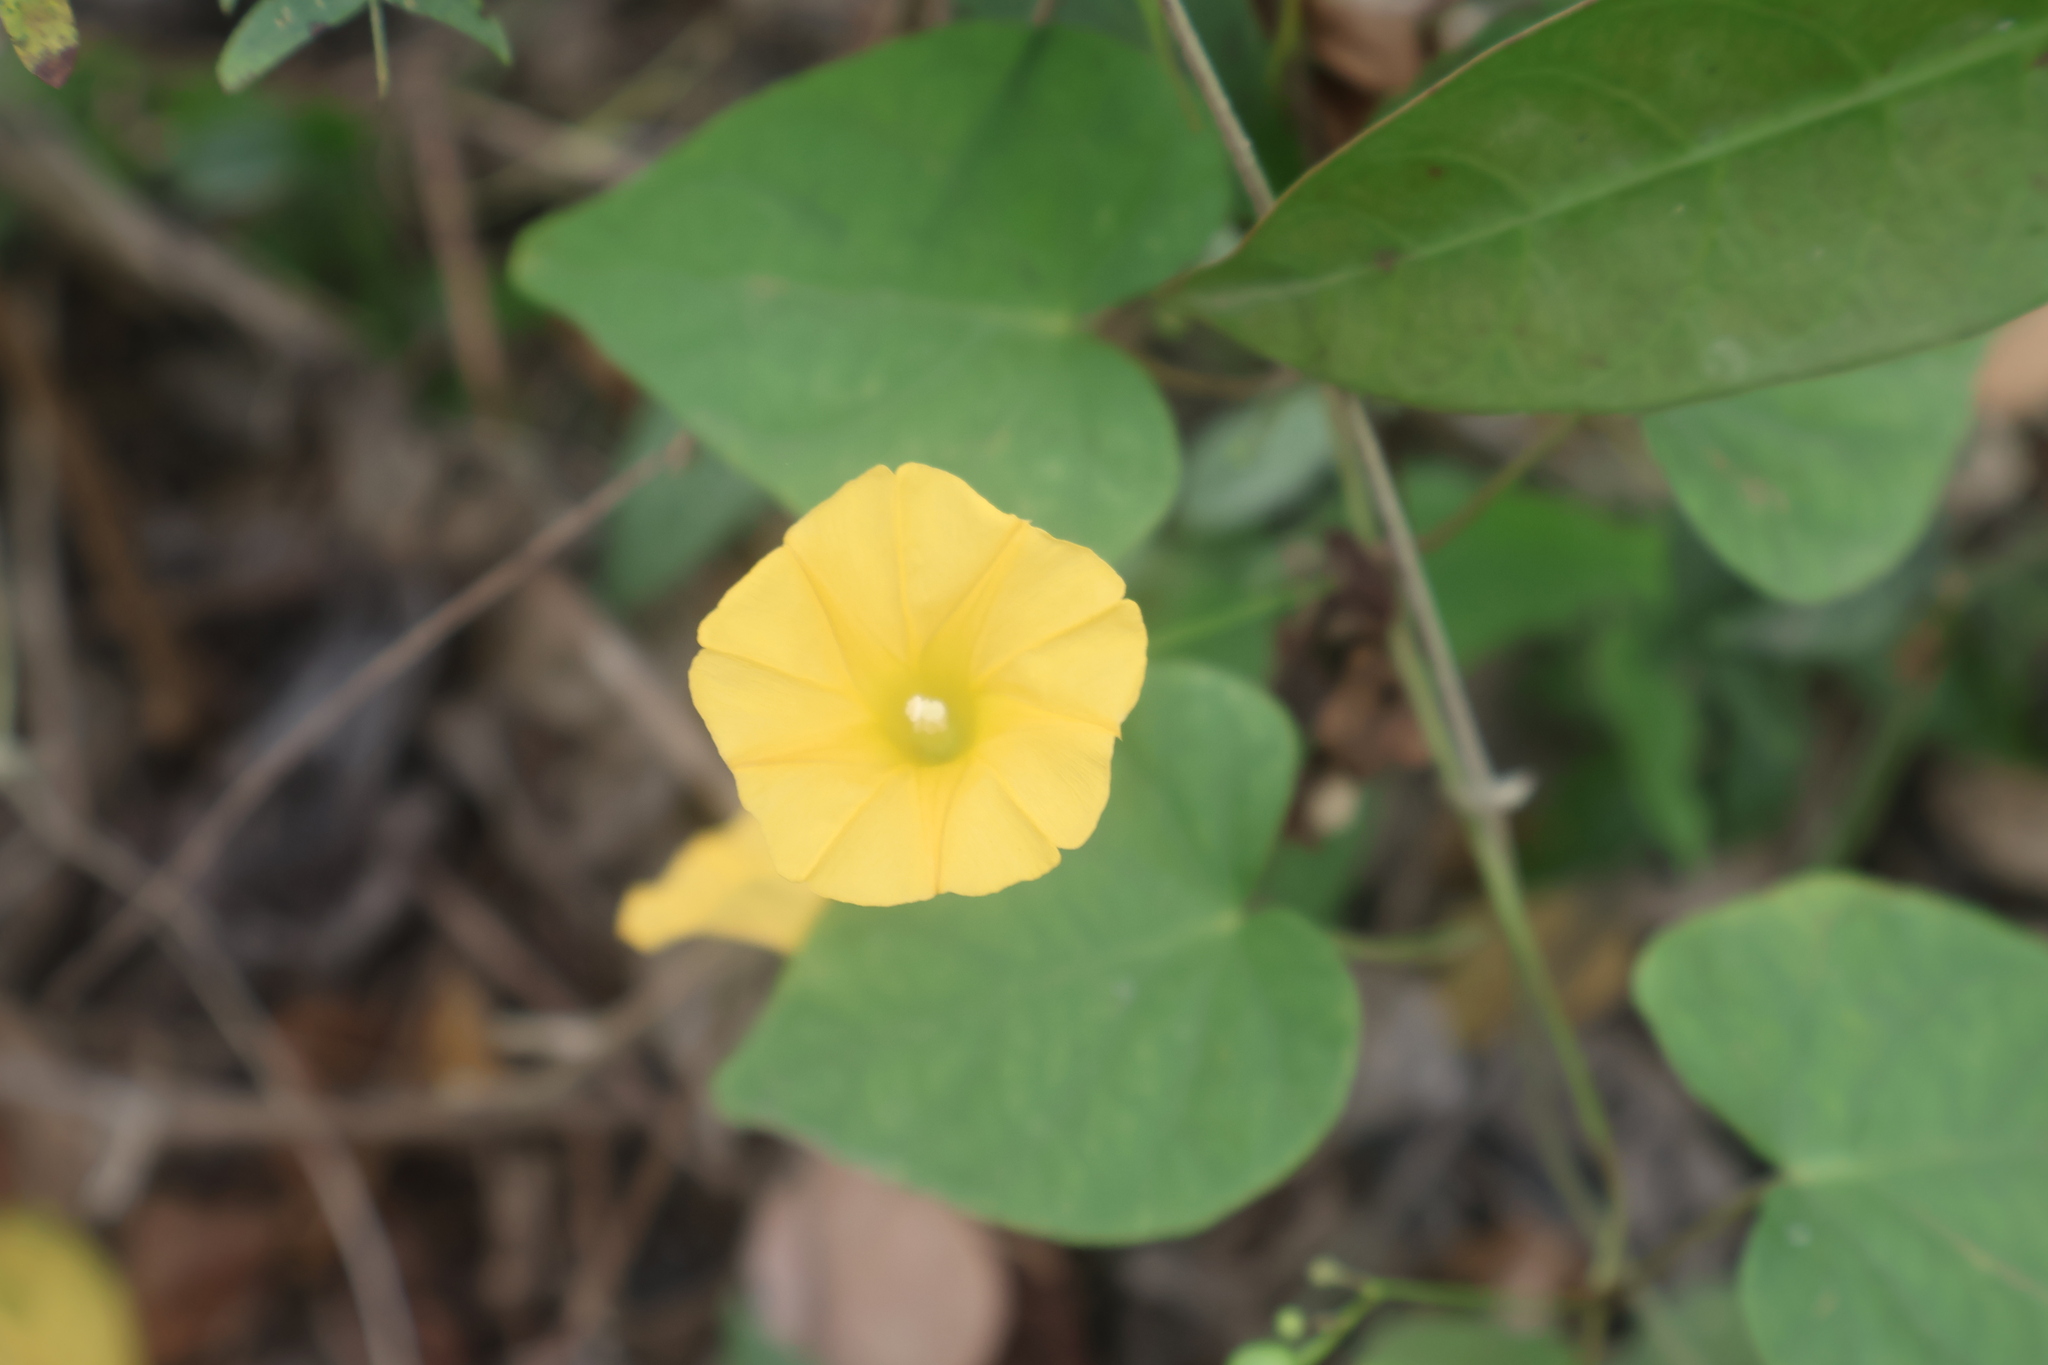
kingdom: Plantae
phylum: Tracheophyta
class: Magnoliopsida
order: Solanales
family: Convolvulaceae
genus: Ipomoea
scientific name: Ipomoea microsepala
